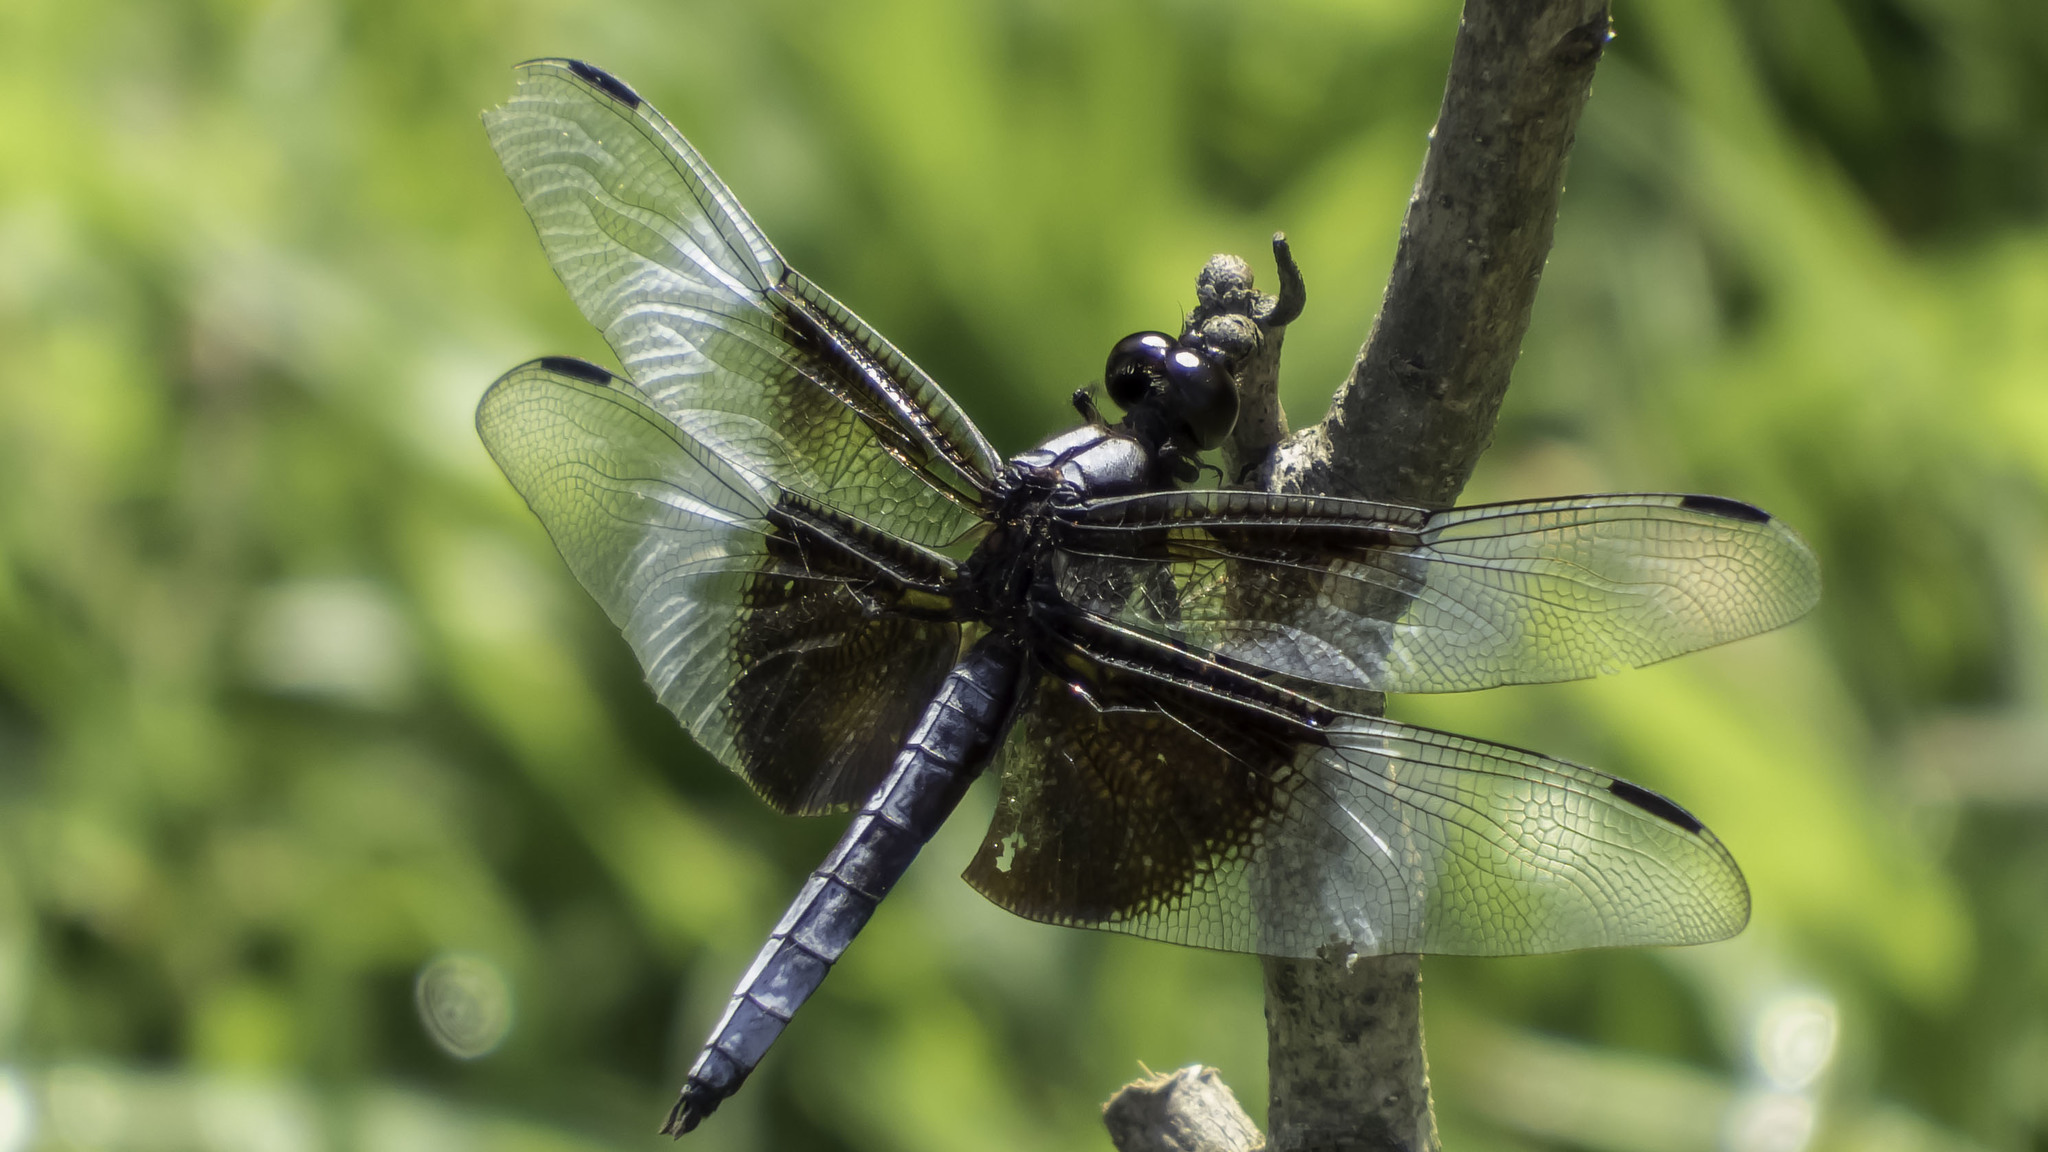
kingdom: Animalia
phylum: Arthropoda
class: Insecta
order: Odonata
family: Libellulidae
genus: Libellula
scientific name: Libellula luctuosa
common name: Widow skimmer
